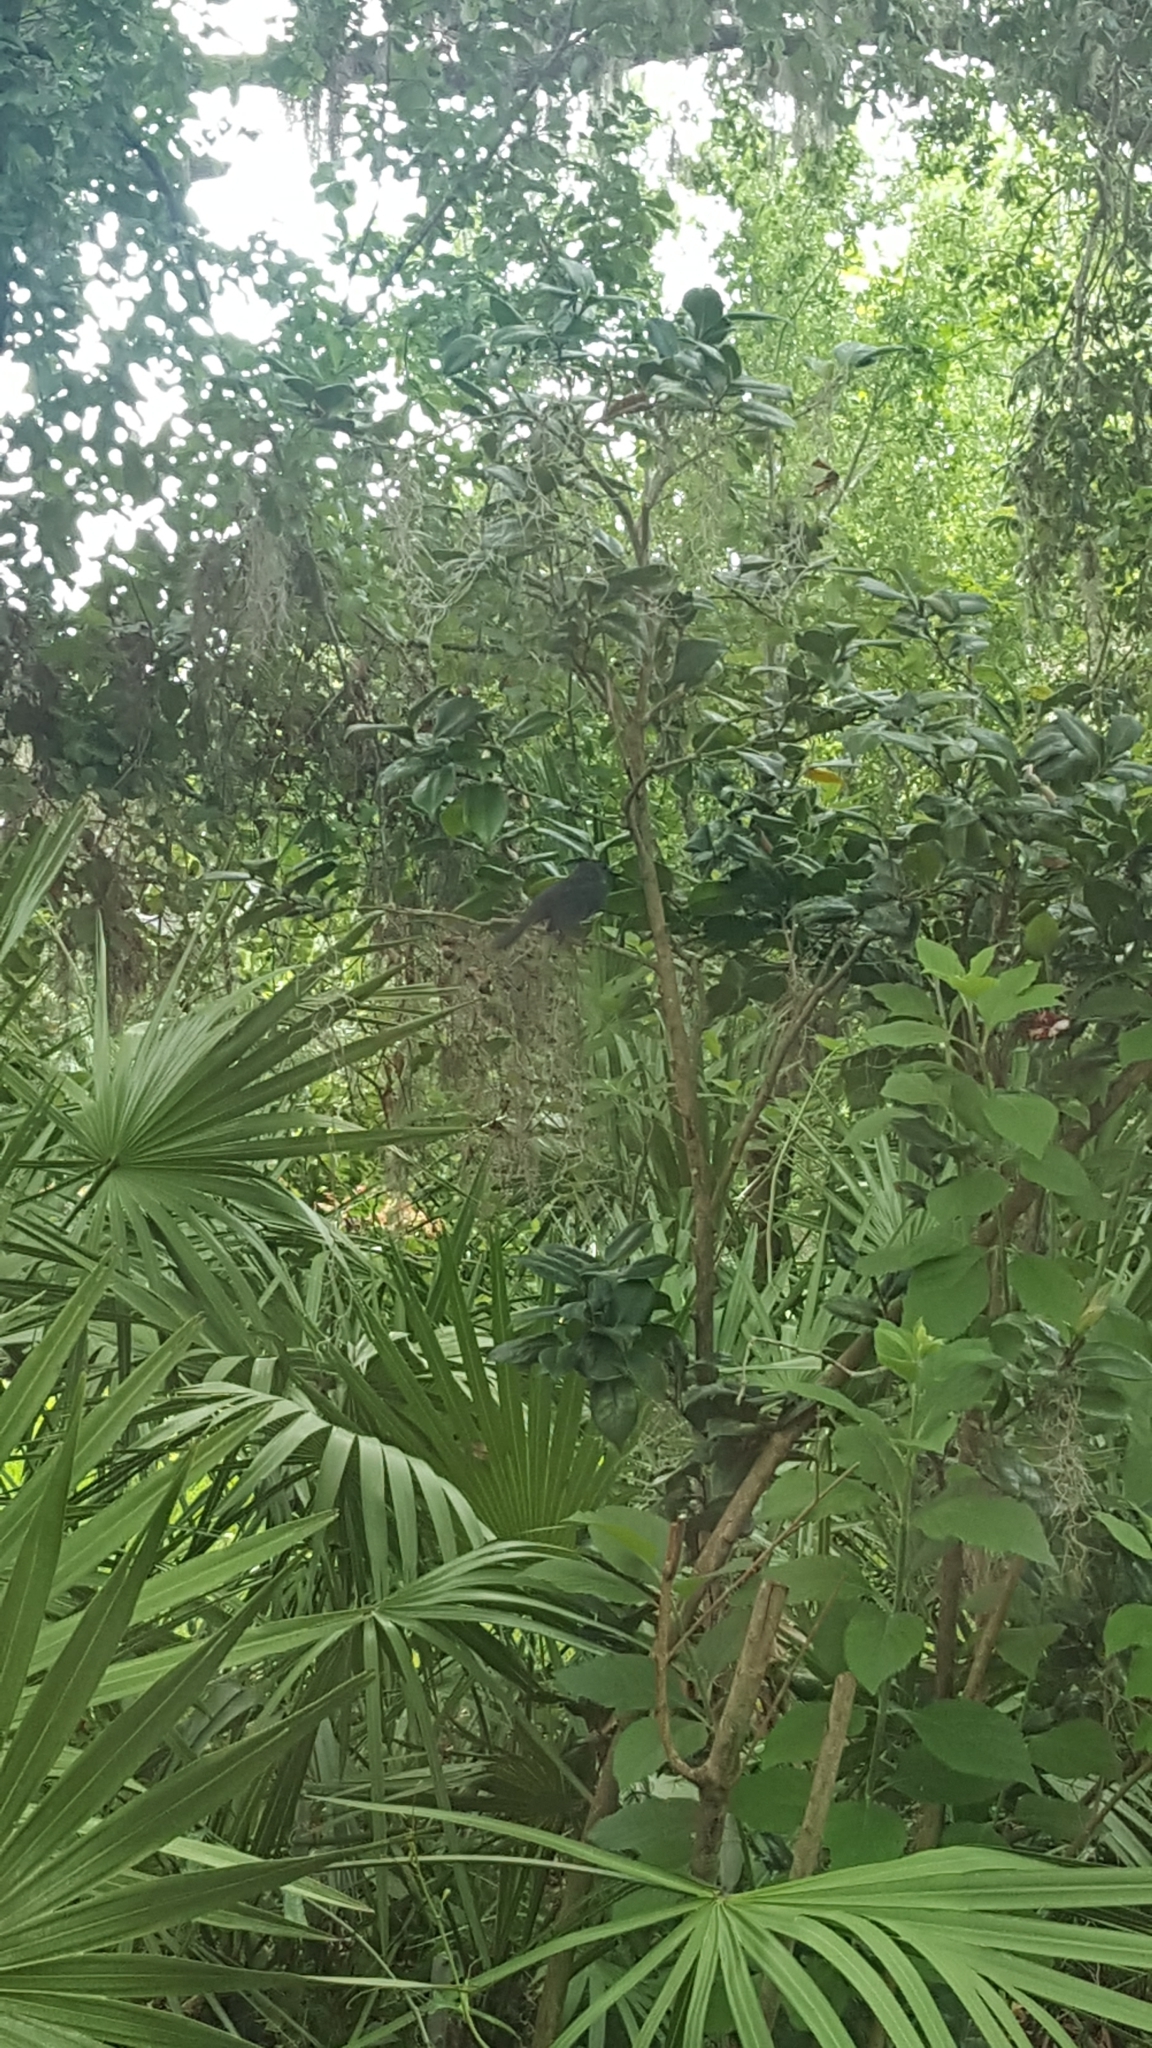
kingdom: Animalia
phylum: Chordata
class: Aves
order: Passeriformes
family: Mimidae
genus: Dumetella
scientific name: Dumetella carolinensis
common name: Gray catbird
